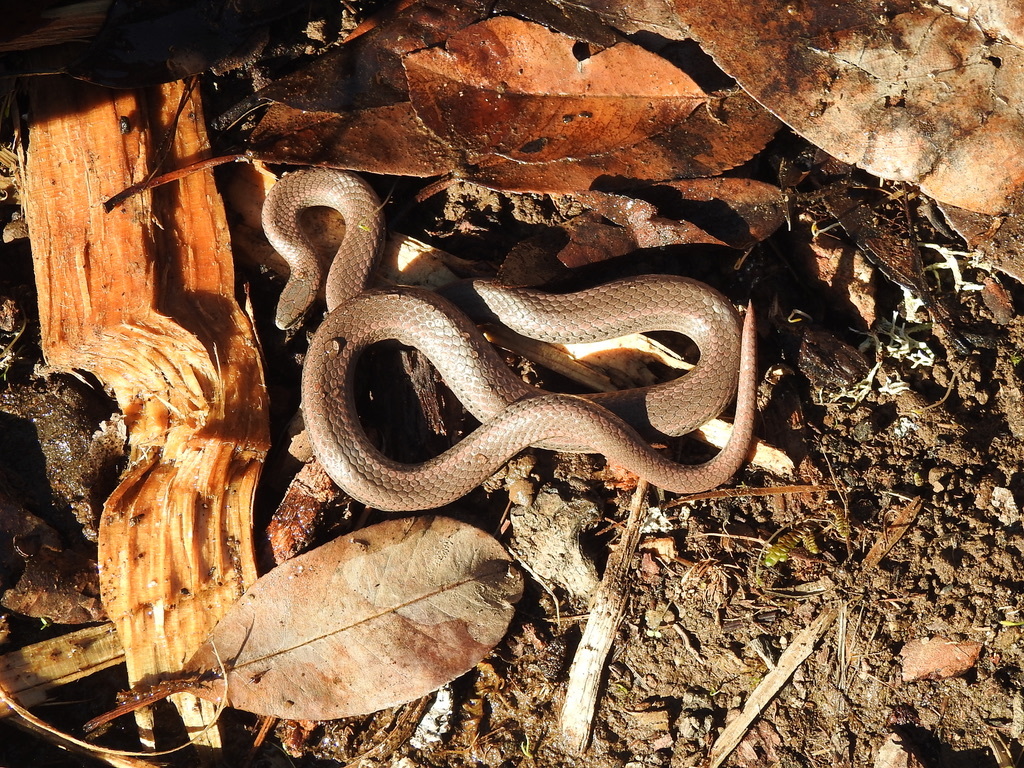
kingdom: Animalia
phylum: Chordata
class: Squamata
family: Colubridae
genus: Contia
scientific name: Contia tenuis
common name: Sharptail snake
